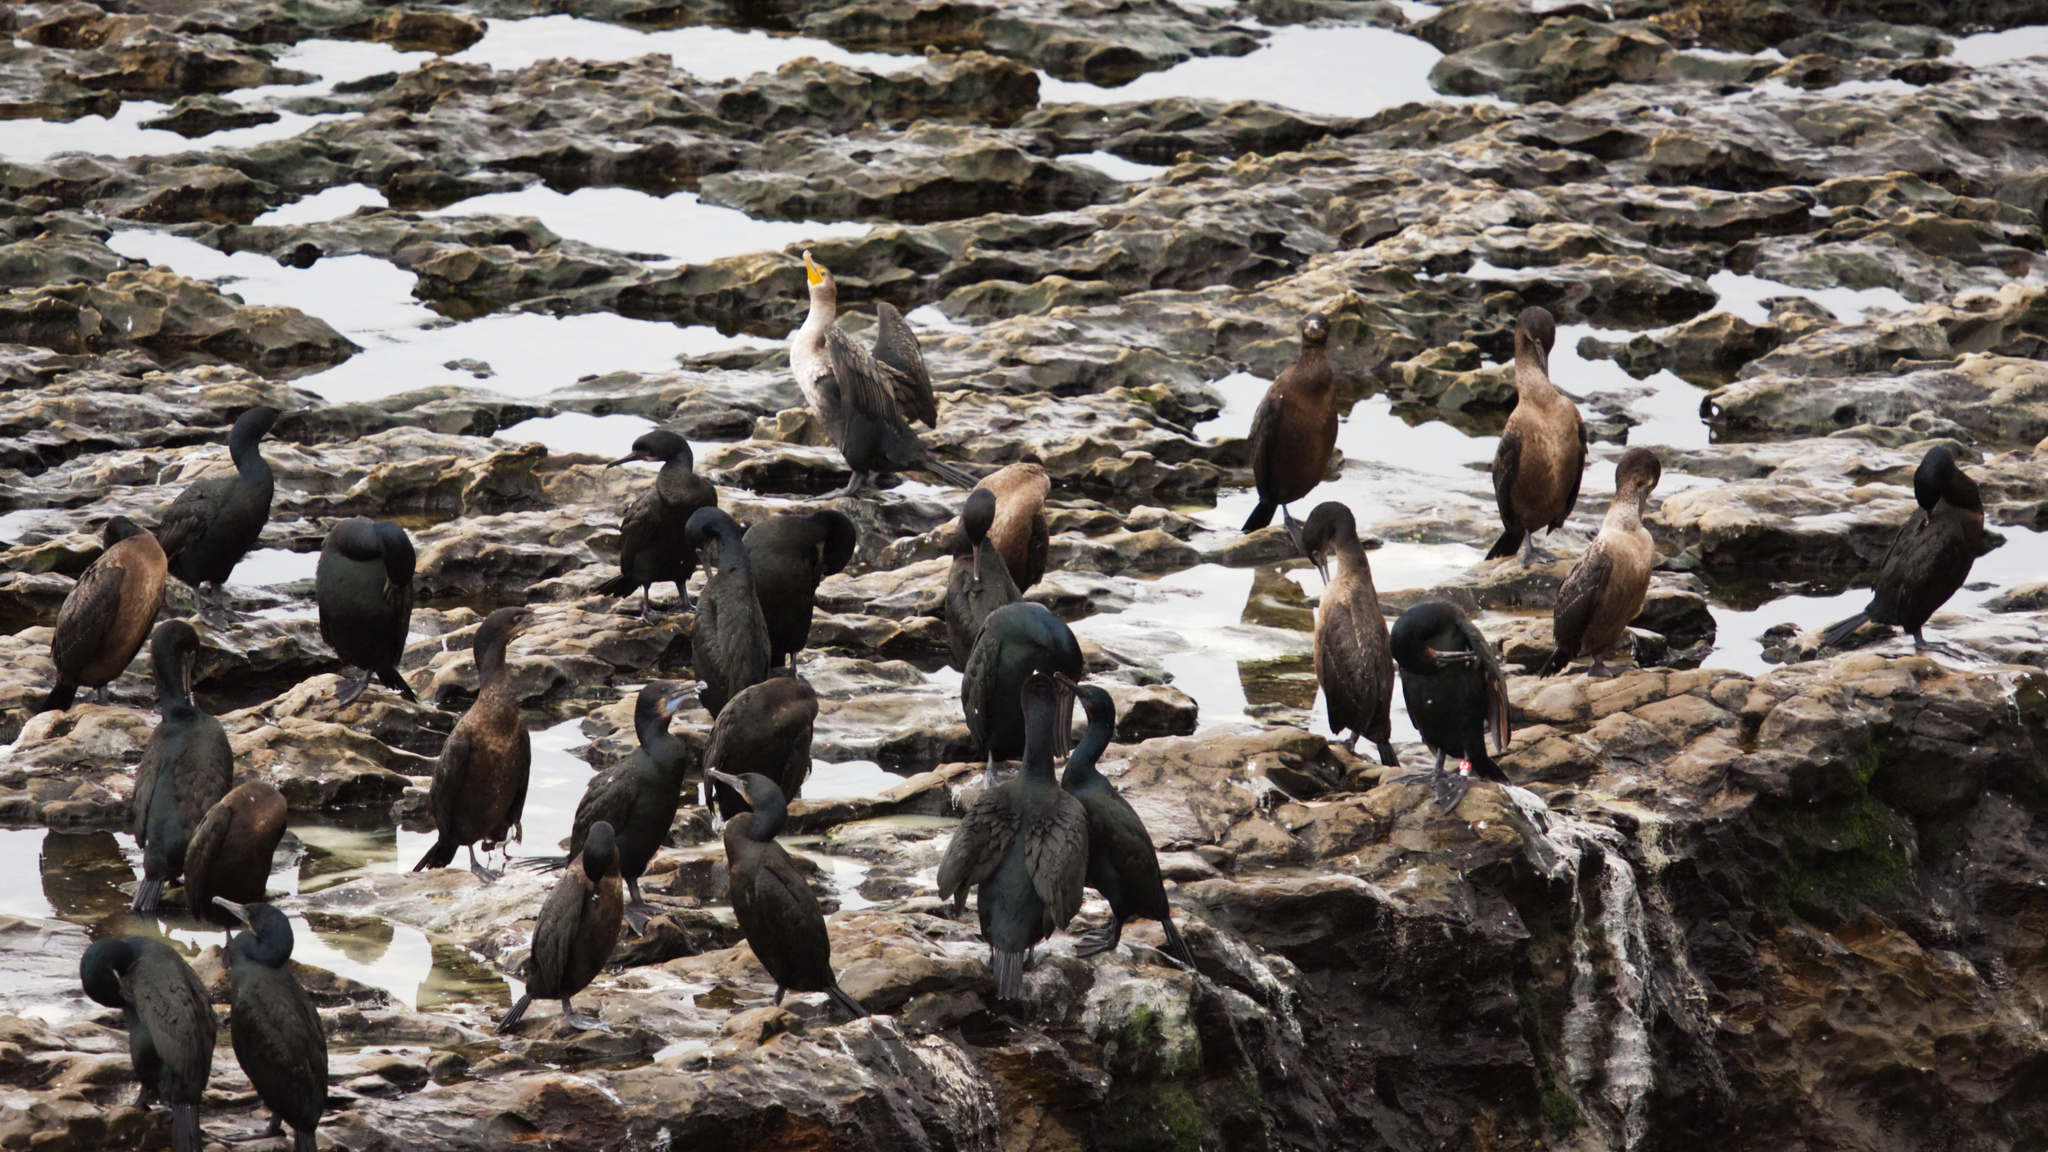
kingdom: Animalia
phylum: Chordata
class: Aves
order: Suliformes
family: Phalacrocoracidae
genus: Urile
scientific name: Urile penicillatus
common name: Brandt's cormorant
